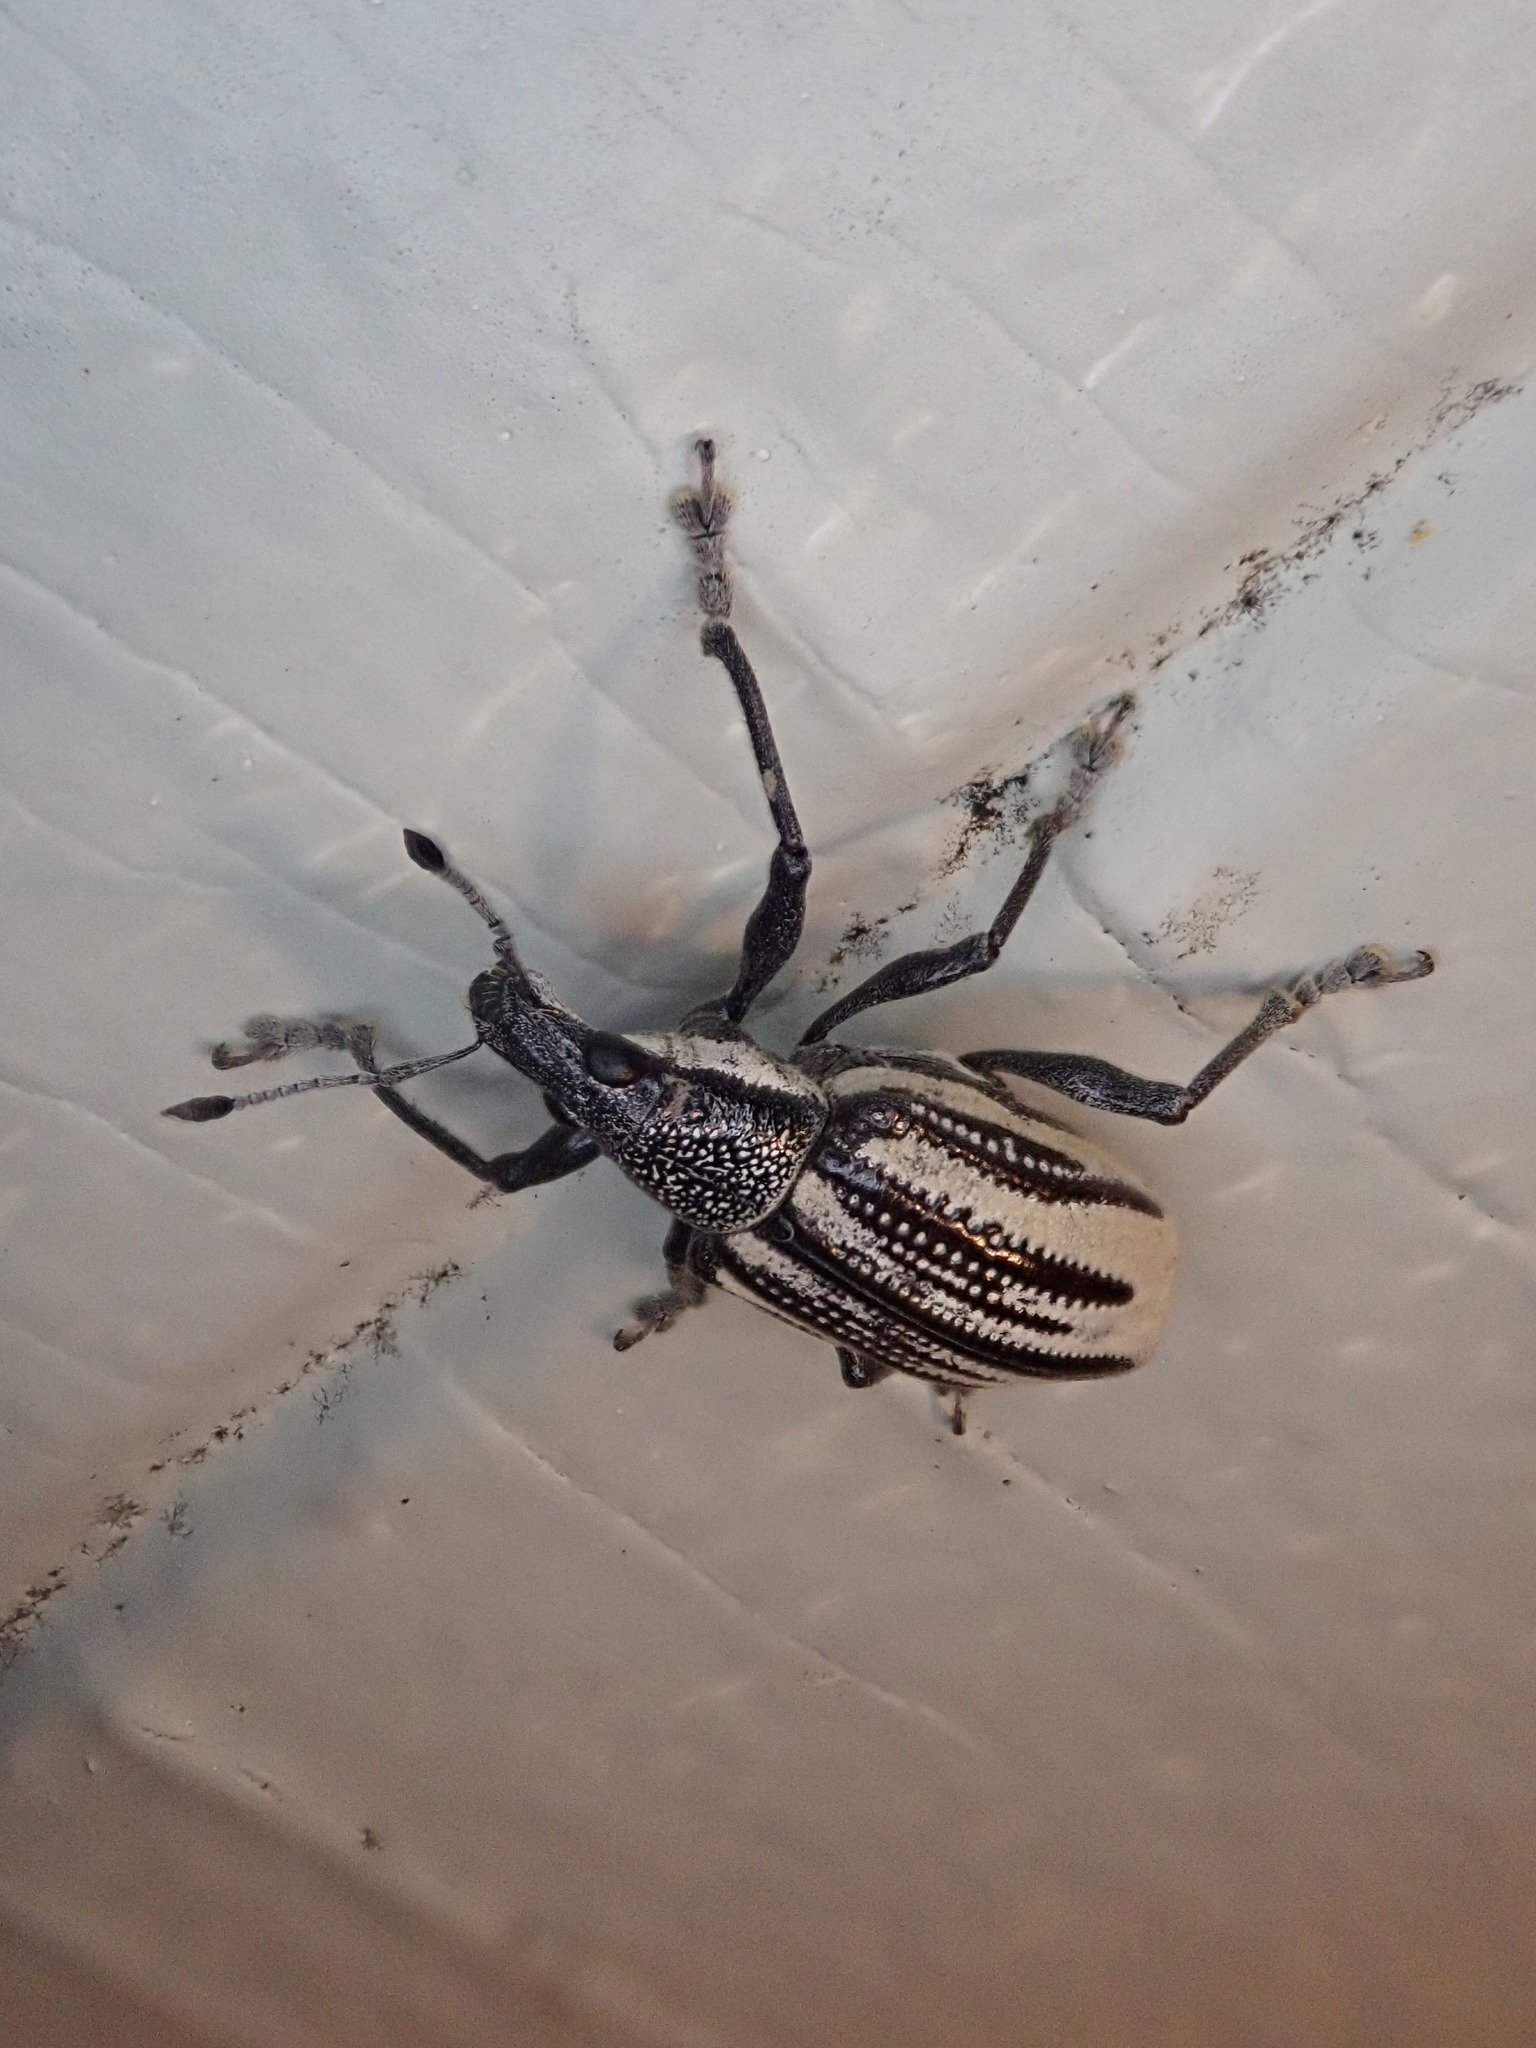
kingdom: Animalia
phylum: Arthropoda
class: Insecta
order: Coleoptera
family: Curculionidae
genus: Diaprepes
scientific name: Diaprepes abbreviatus
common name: Root weevil
